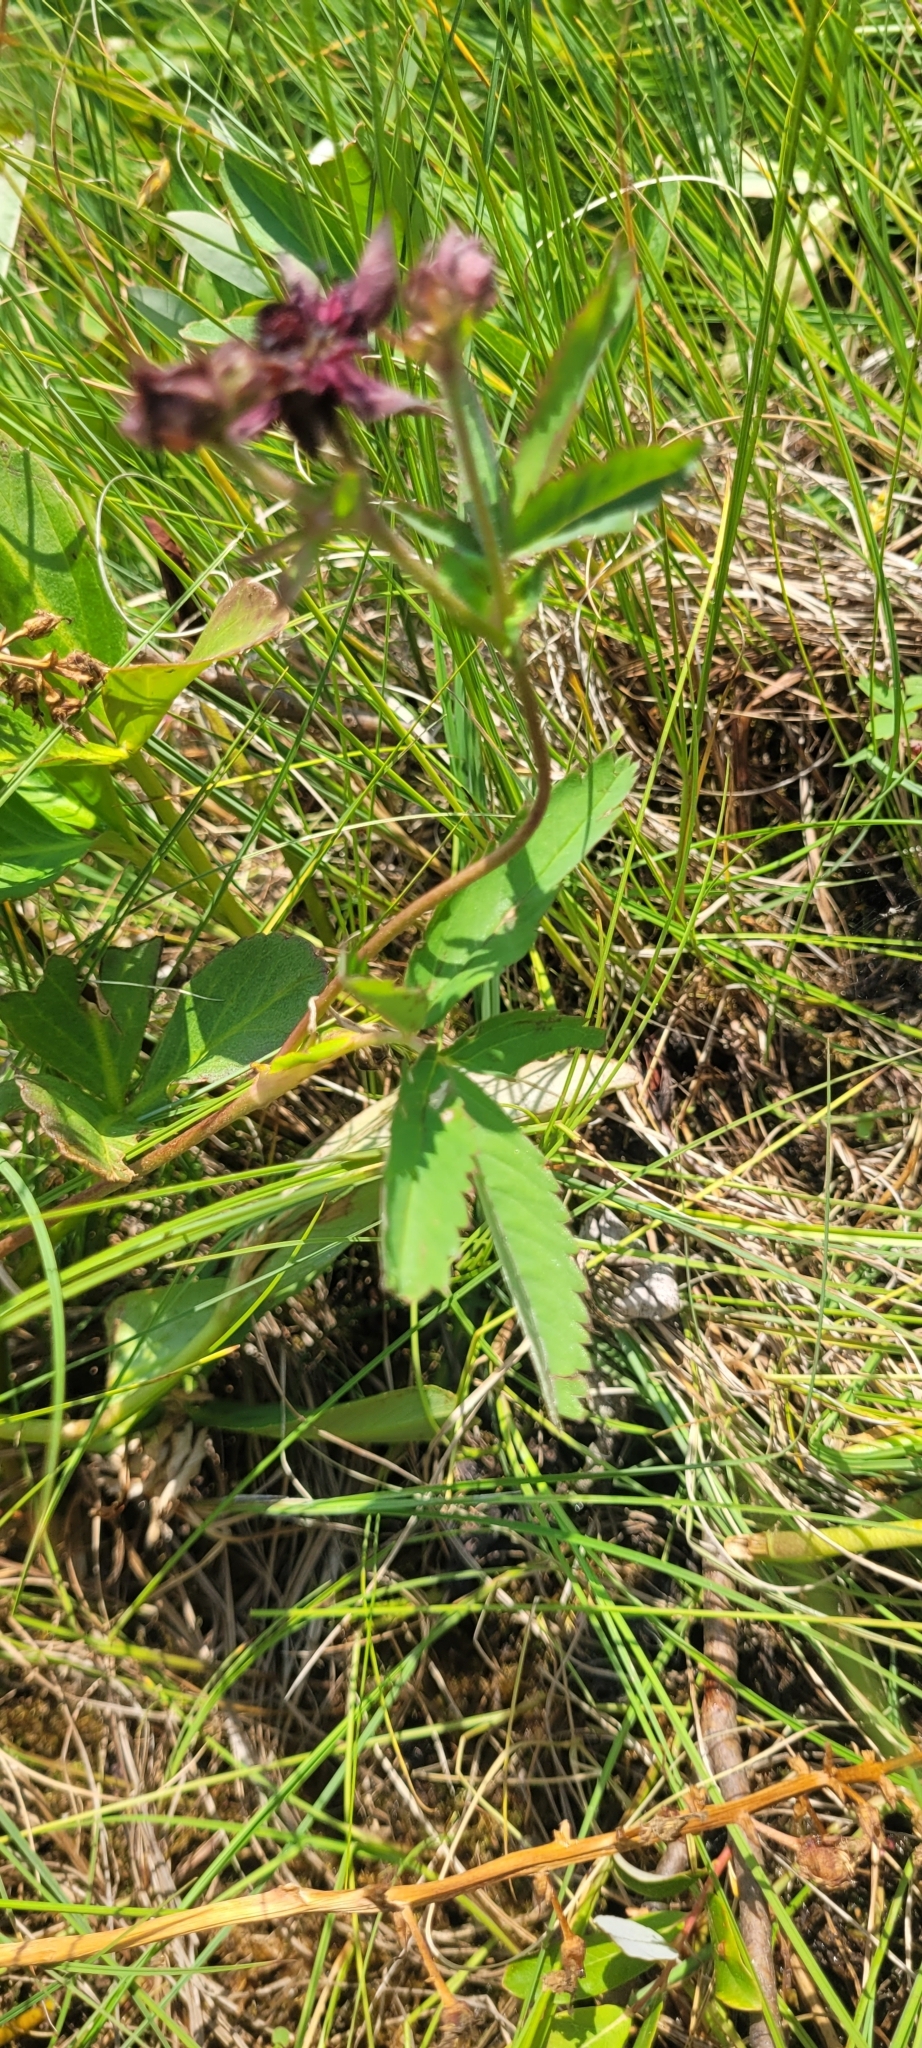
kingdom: Plantae
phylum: Tracheophyta
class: Magnoliopsida
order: Rosales
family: Rosaceae
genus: Comarum
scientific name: Comarum palustre
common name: Marsh cinquefoil
